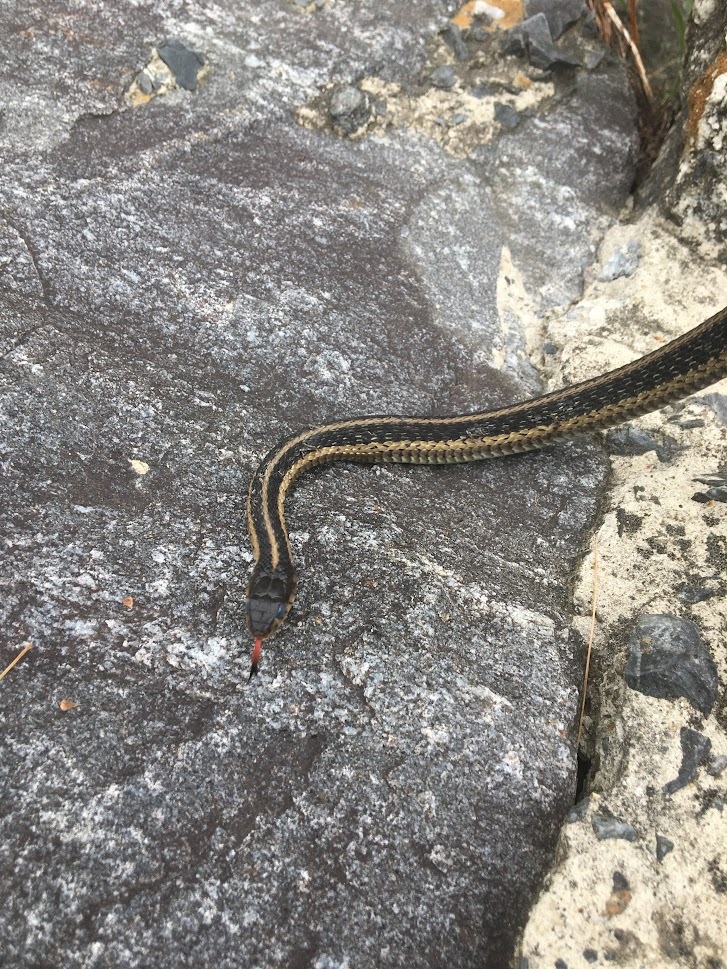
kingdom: Animalia
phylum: Chordata
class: Squamata
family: Colubridae
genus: Thamnophis
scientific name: Thamnophis sirtalis
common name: Common garter snake
